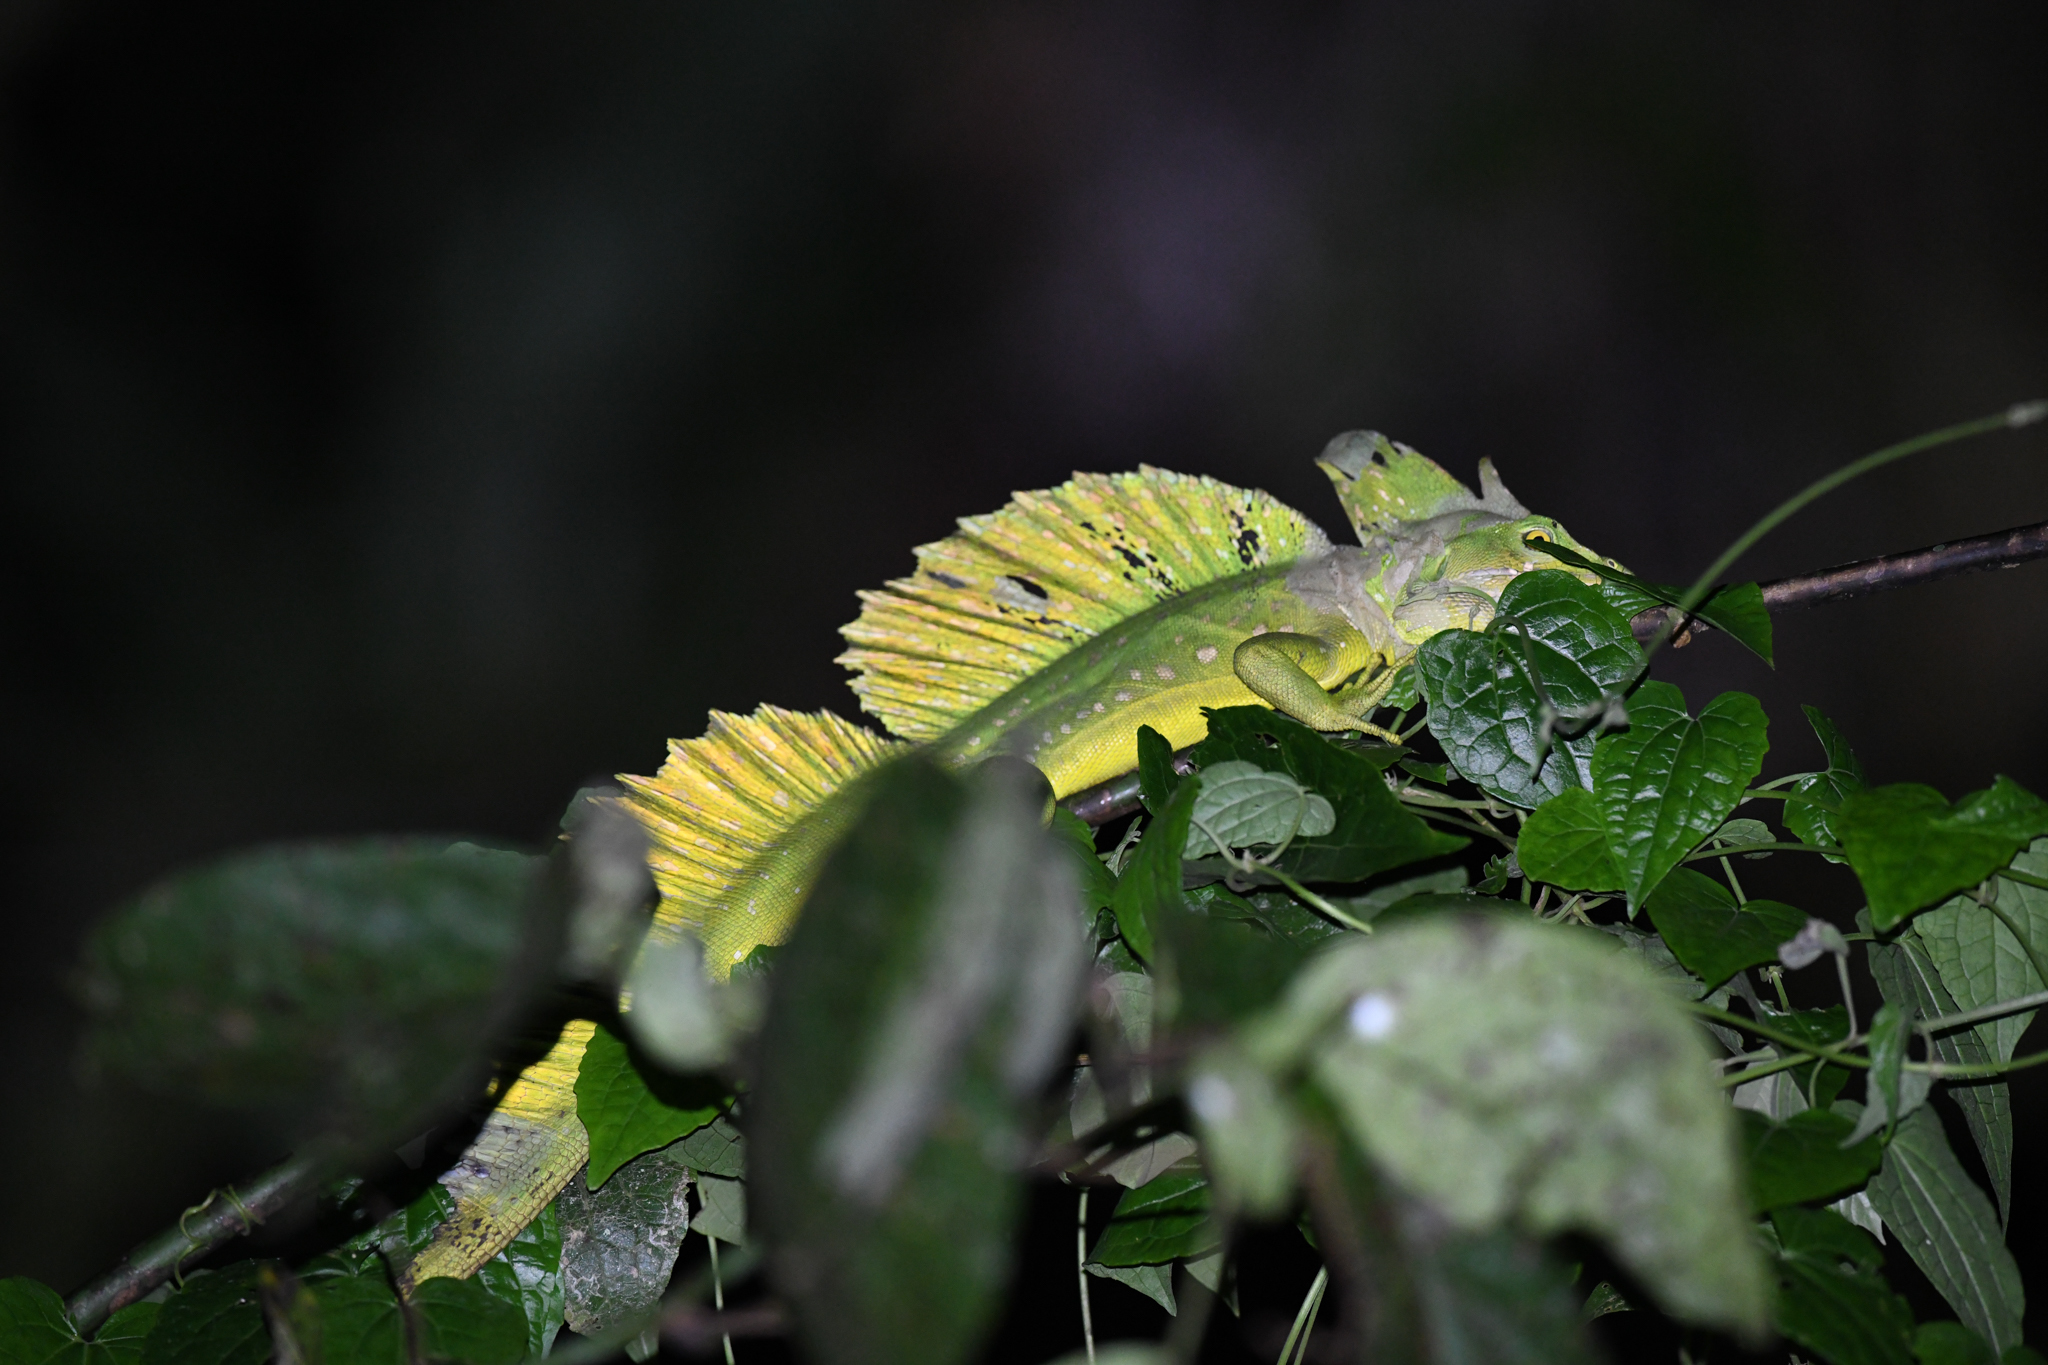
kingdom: Animalia
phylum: Chordata
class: Squamata
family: Corytophanidae
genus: Basiliscus
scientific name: Basiliscus plumifrons
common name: Green basilisk
